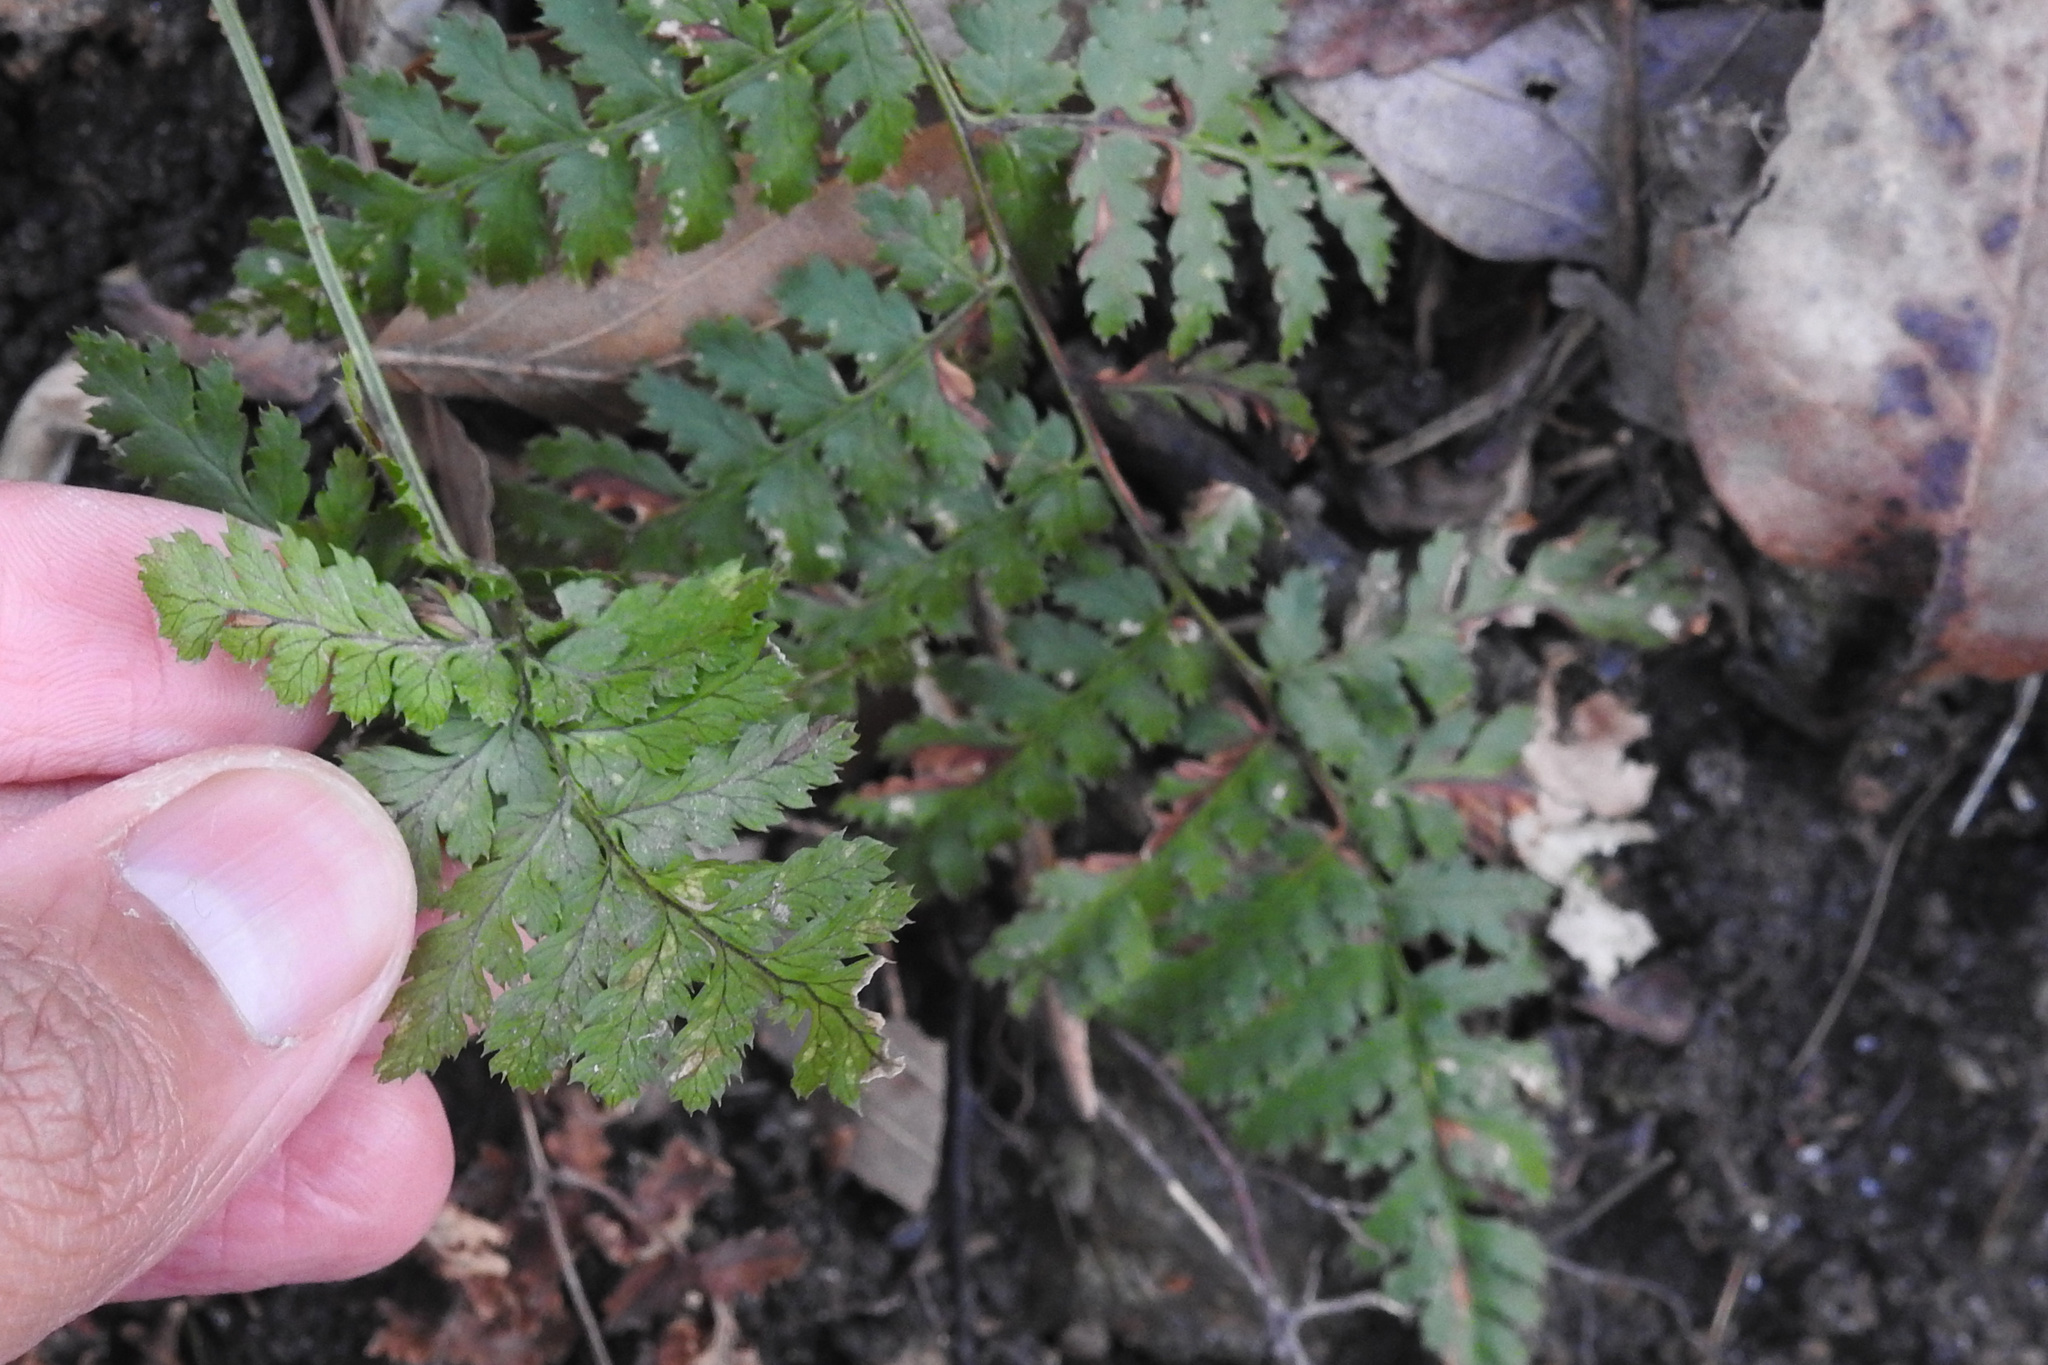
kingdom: Plantae
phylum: Tracheophyta
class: Polypodiopsida
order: Polypodiales
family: Dryopteridaceae
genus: Dryopteris
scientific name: Dryopteris intermedia
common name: Evergreen wood fern
